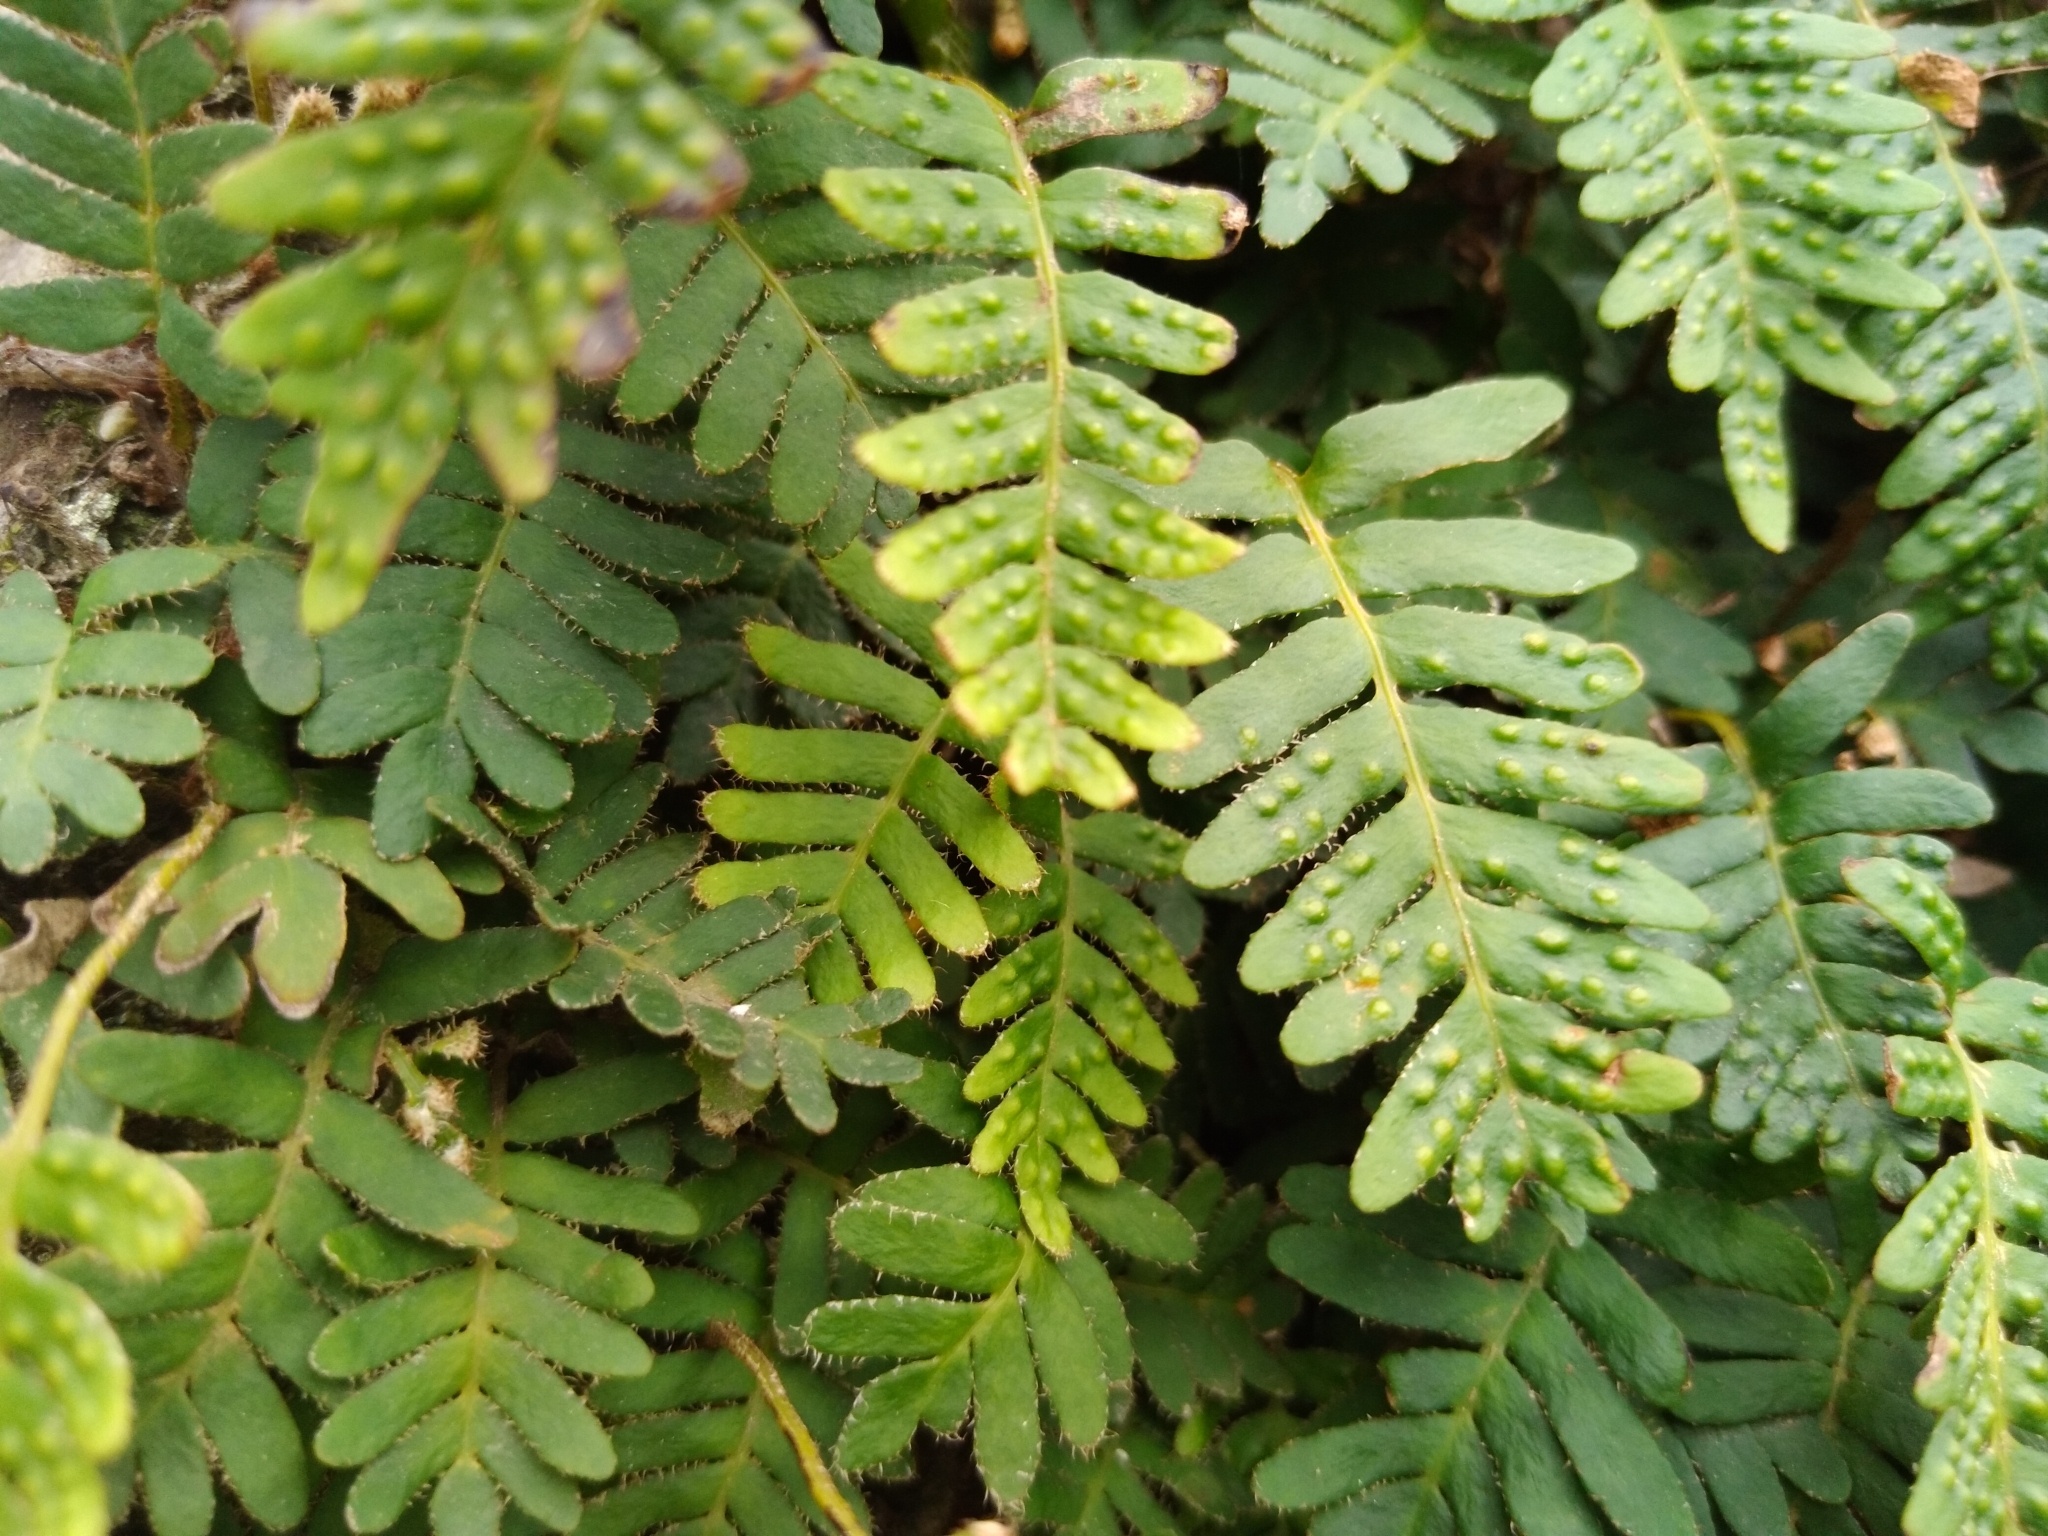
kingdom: Plantae
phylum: Tracheophyta
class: Polypodiopsida
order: Polypodiales
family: Polypodiaceae
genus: Pleopeltis
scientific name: Pleopeltis minima
